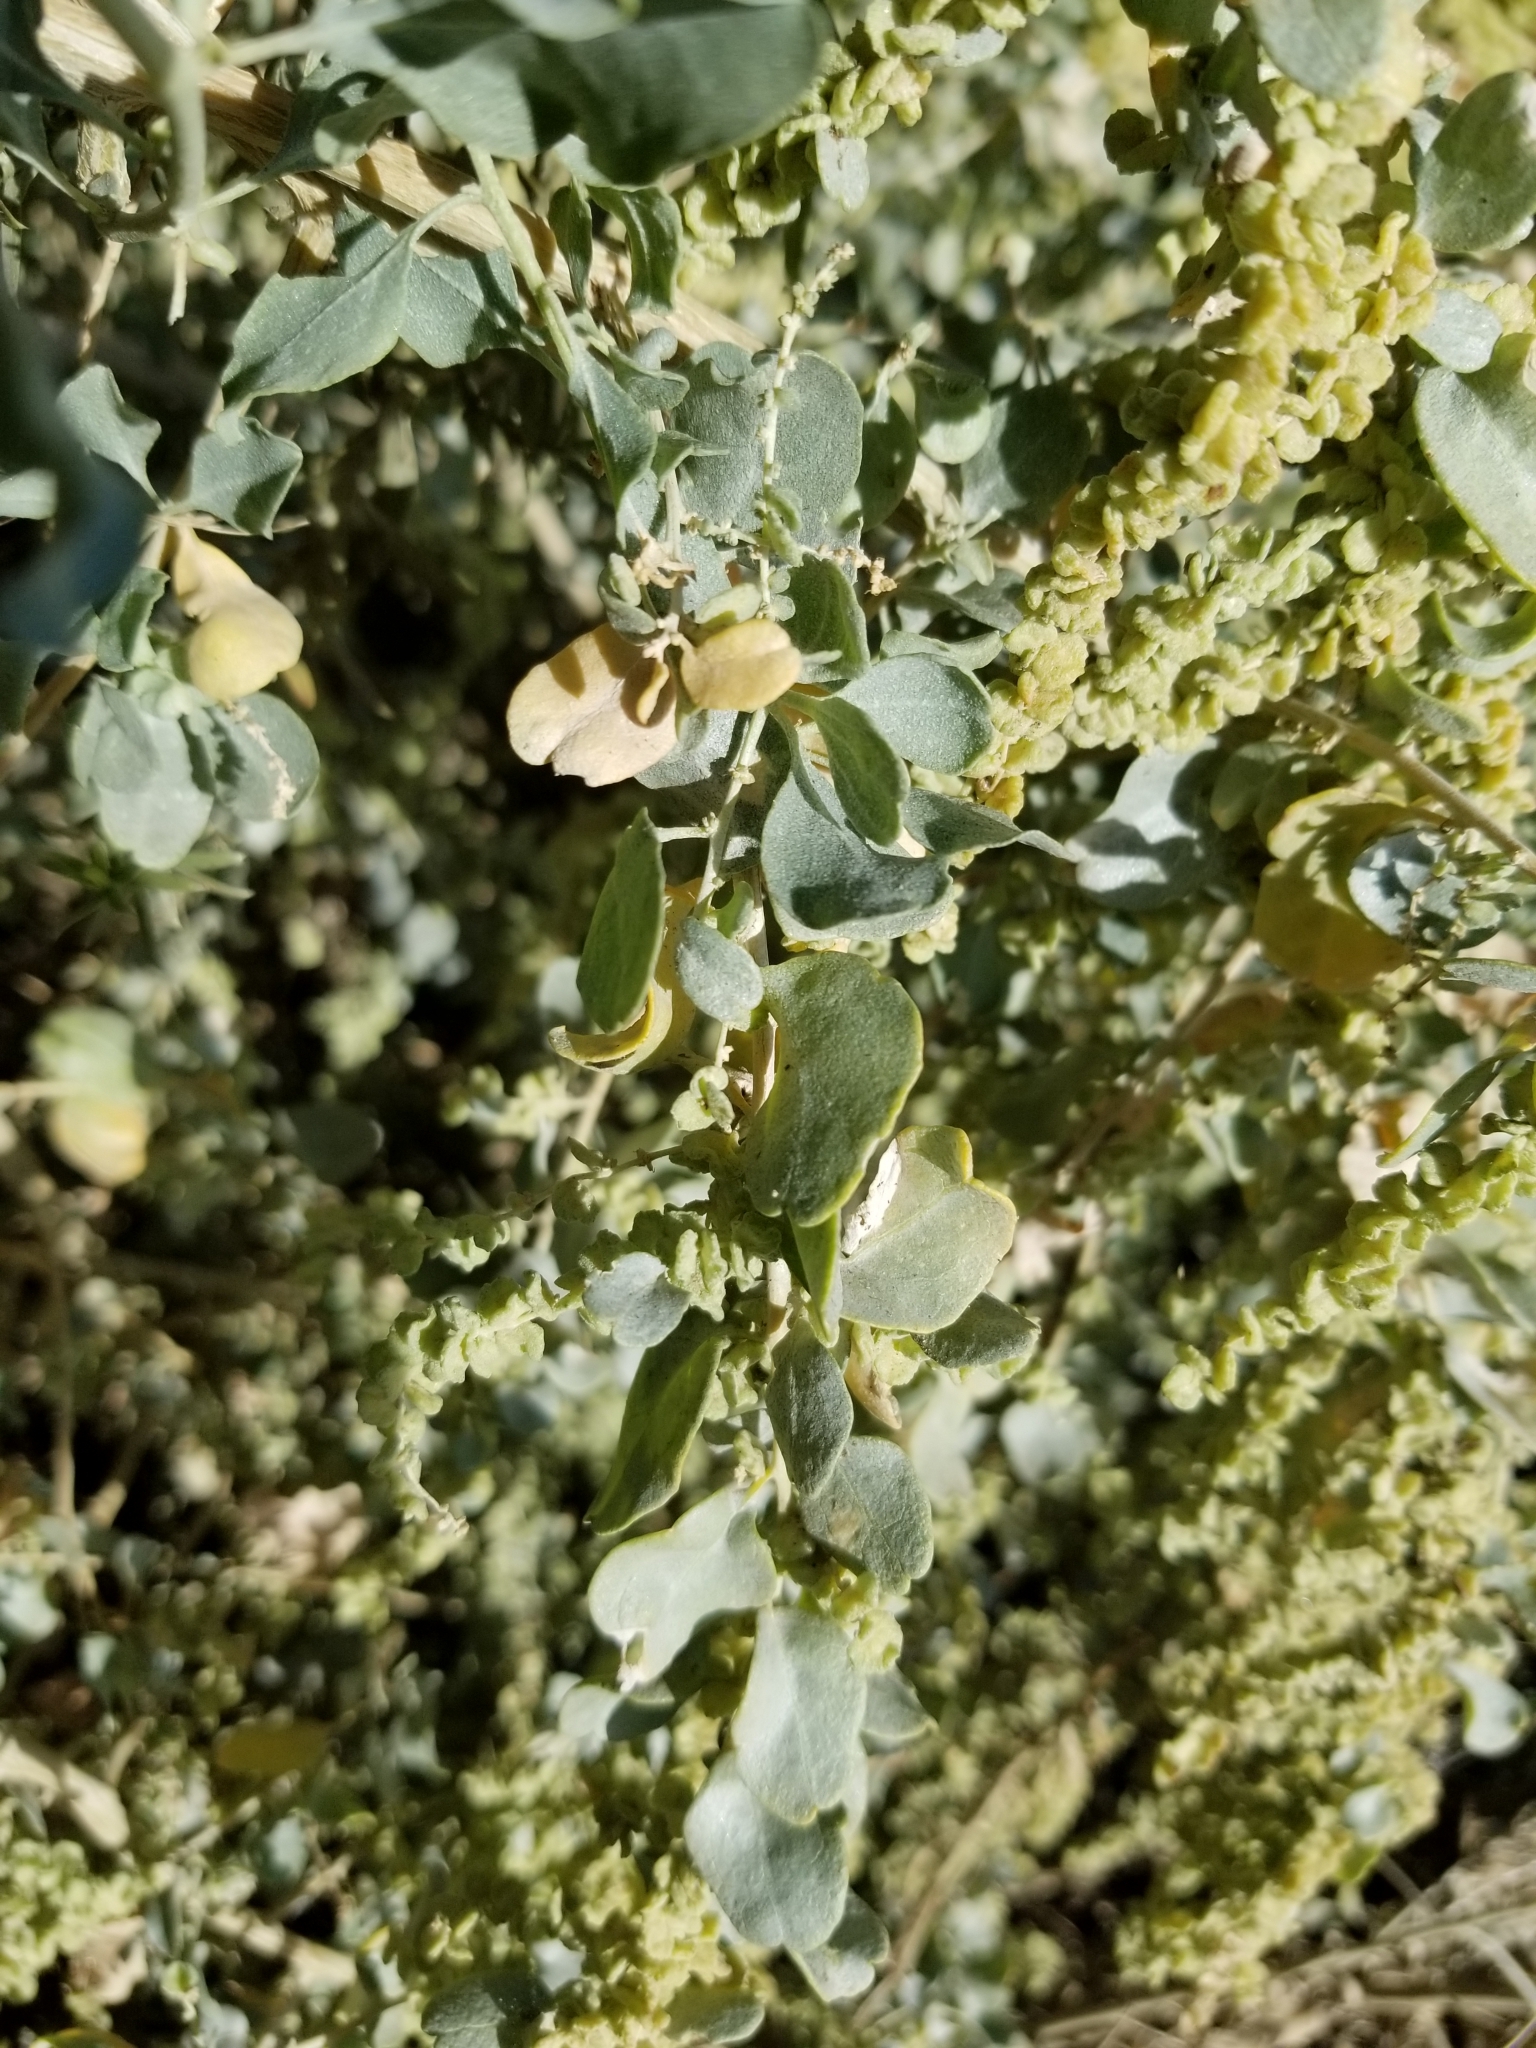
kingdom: Plantae
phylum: Tracheophyta
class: Magnoliopsida
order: Caryophyllales
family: Amaranthaceae
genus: Atriplex
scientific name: Atriplex lentiformis
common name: Big saltbush
